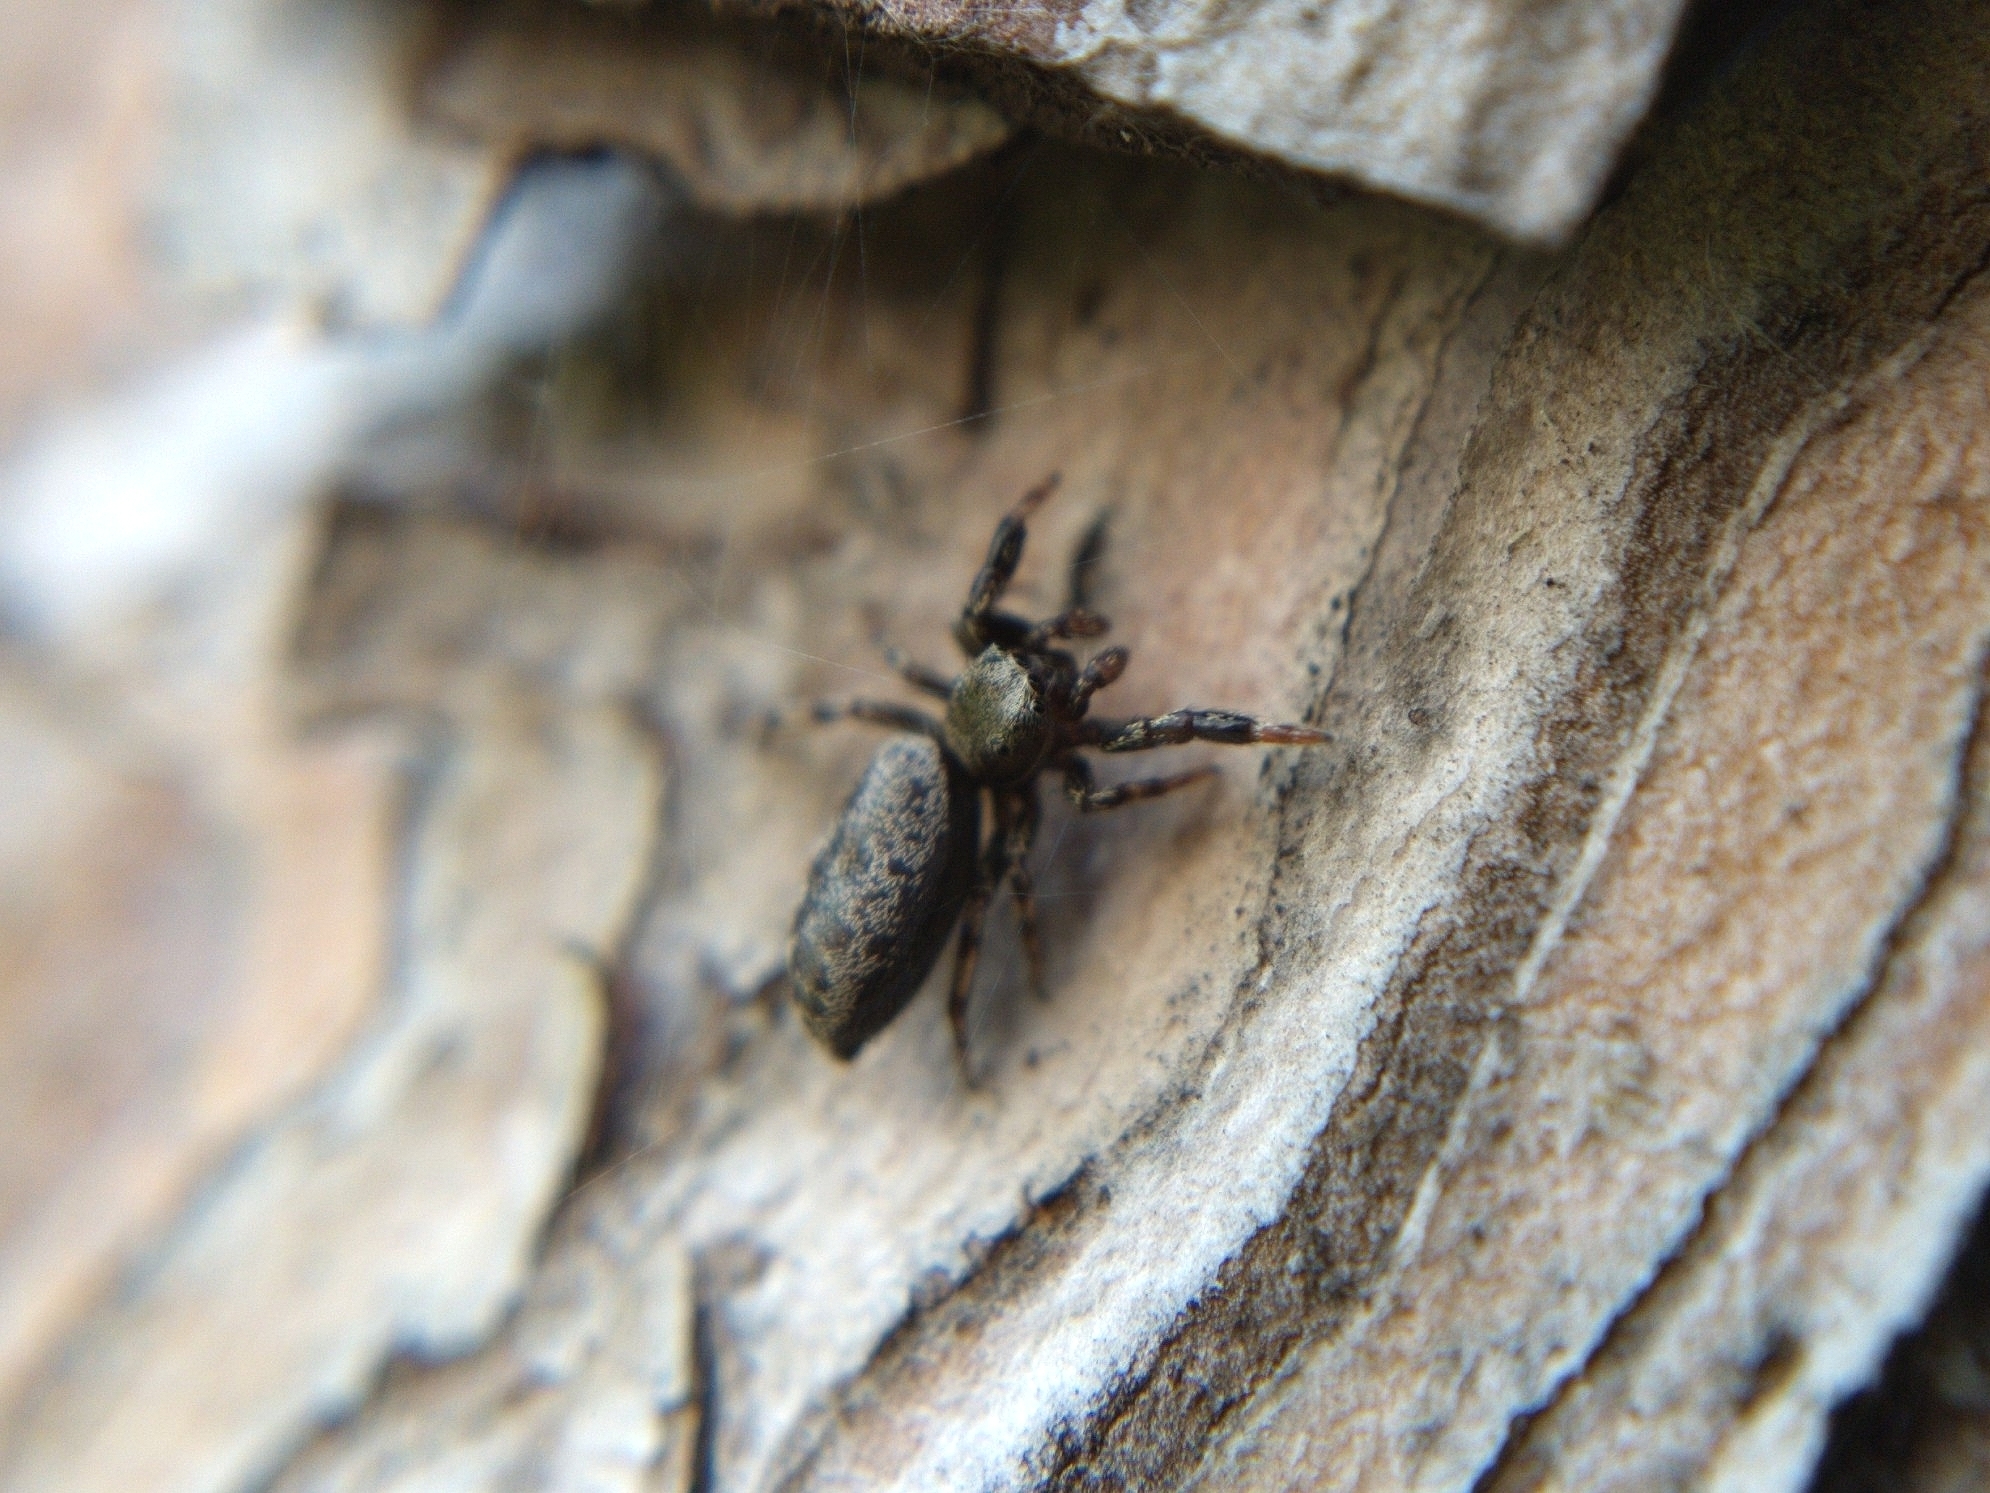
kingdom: Animalia
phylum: Arthropoda
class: Arachnida
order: Araneae
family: Salticidae
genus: Tutelina
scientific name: Tutelina harti
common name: Hart's jumping spider
